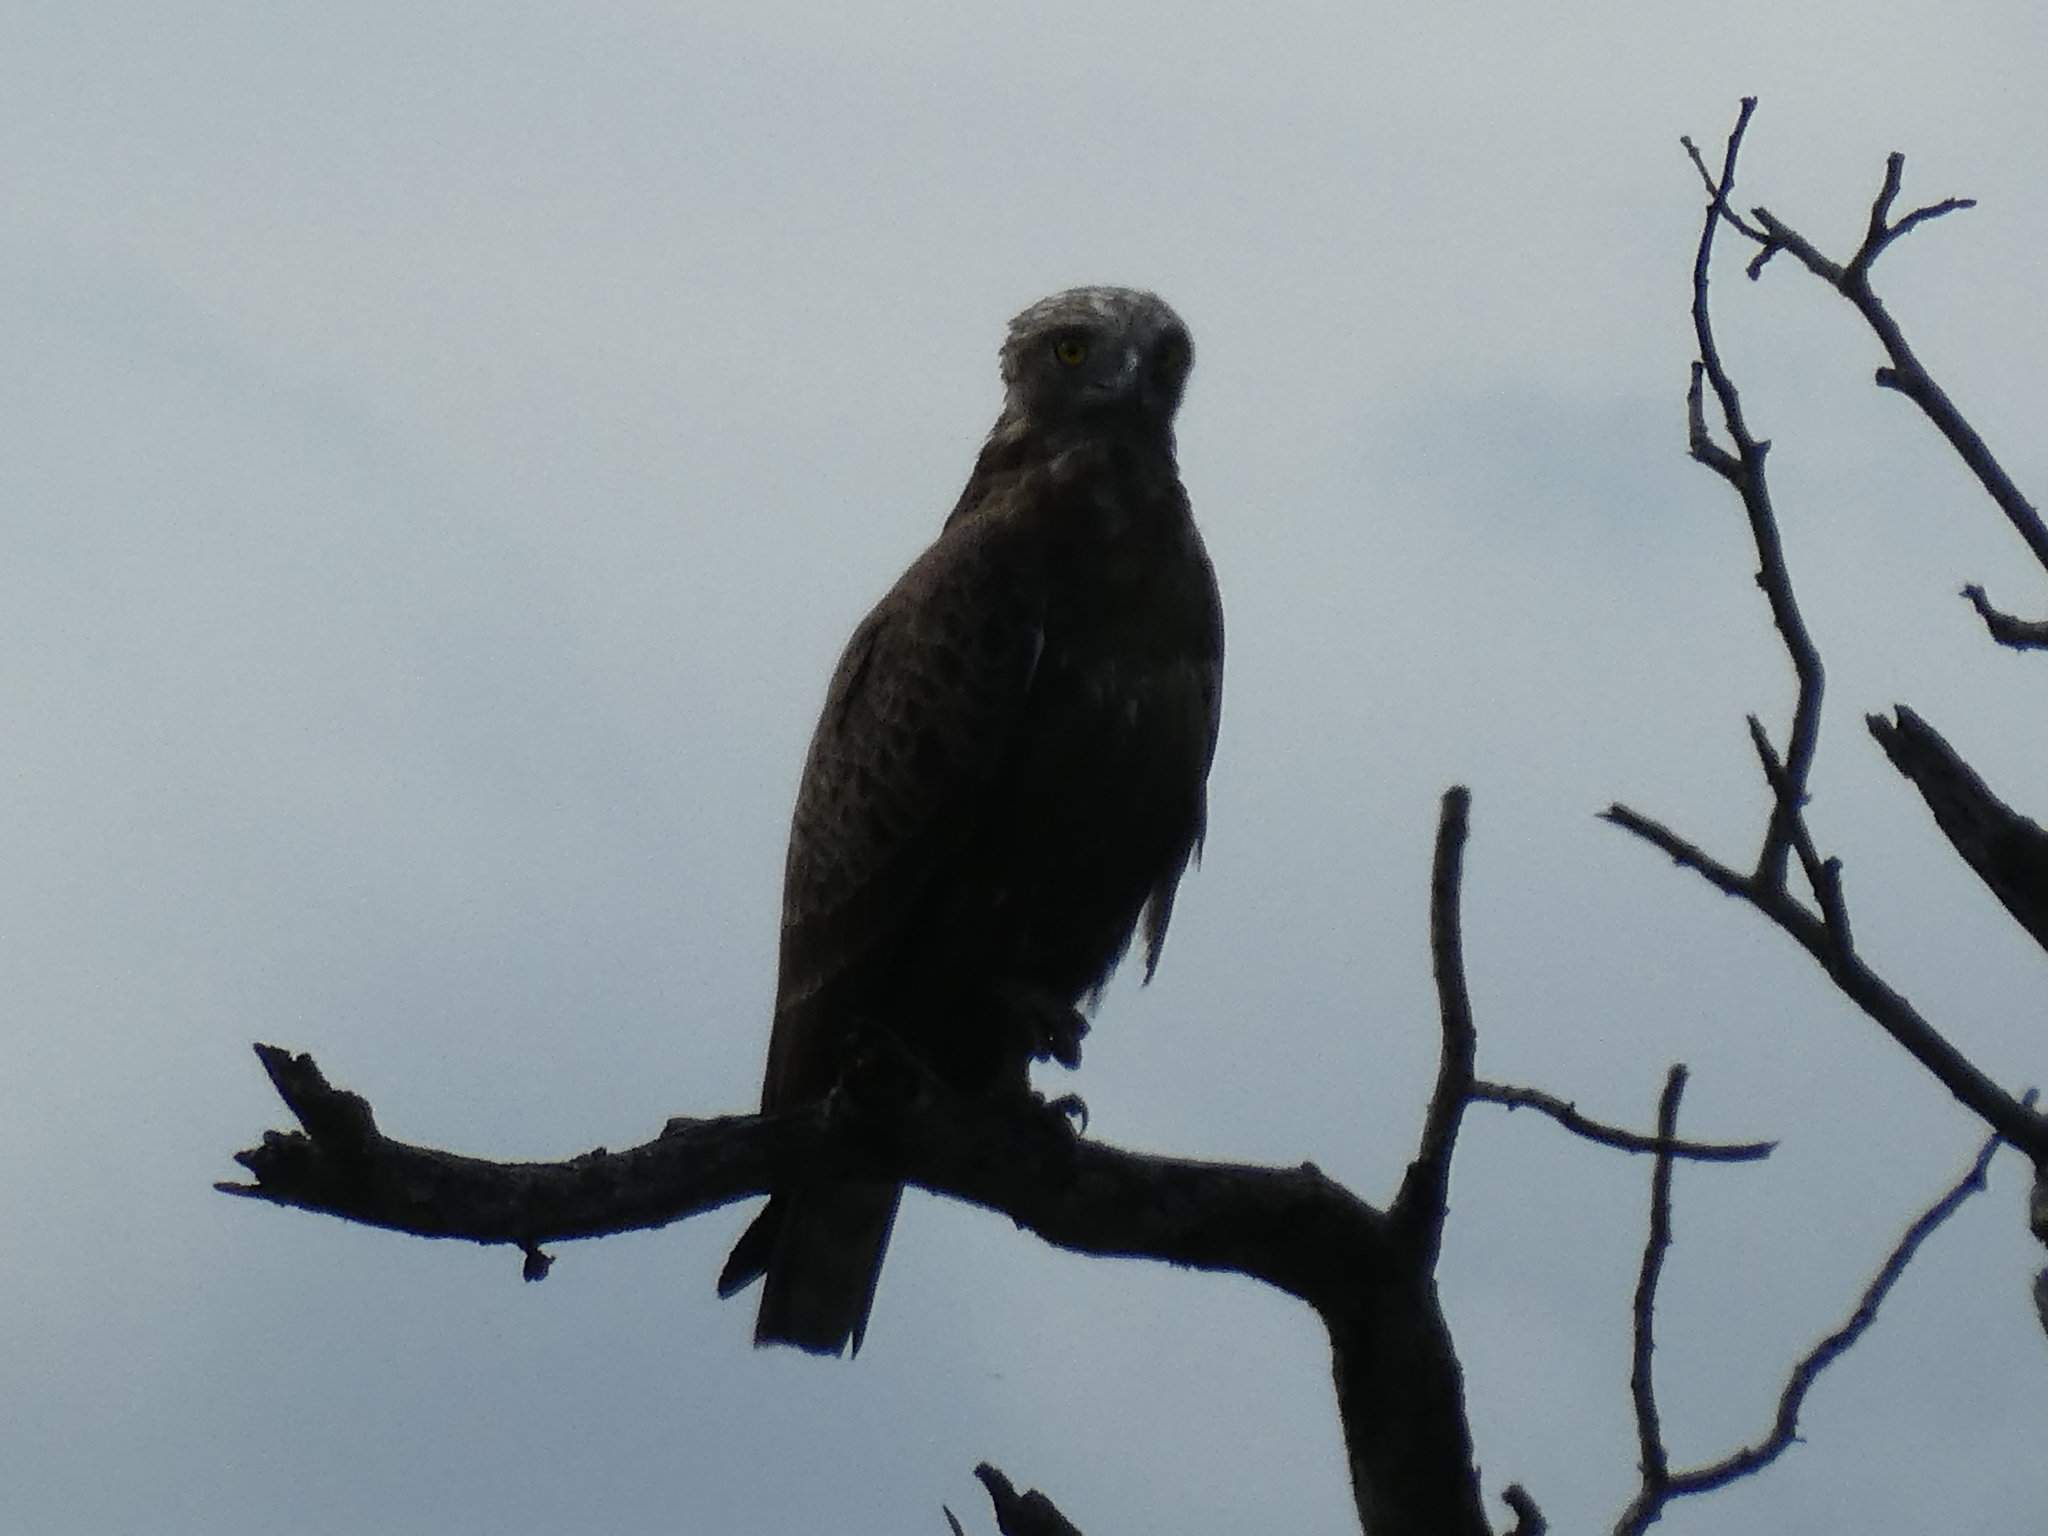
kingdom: Animalia
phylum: Chordata
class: Aves
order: Accipitriformes
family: Accipitridae
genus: Circaetus
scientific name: Circaetus cinereus
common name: Brown snake eagle
